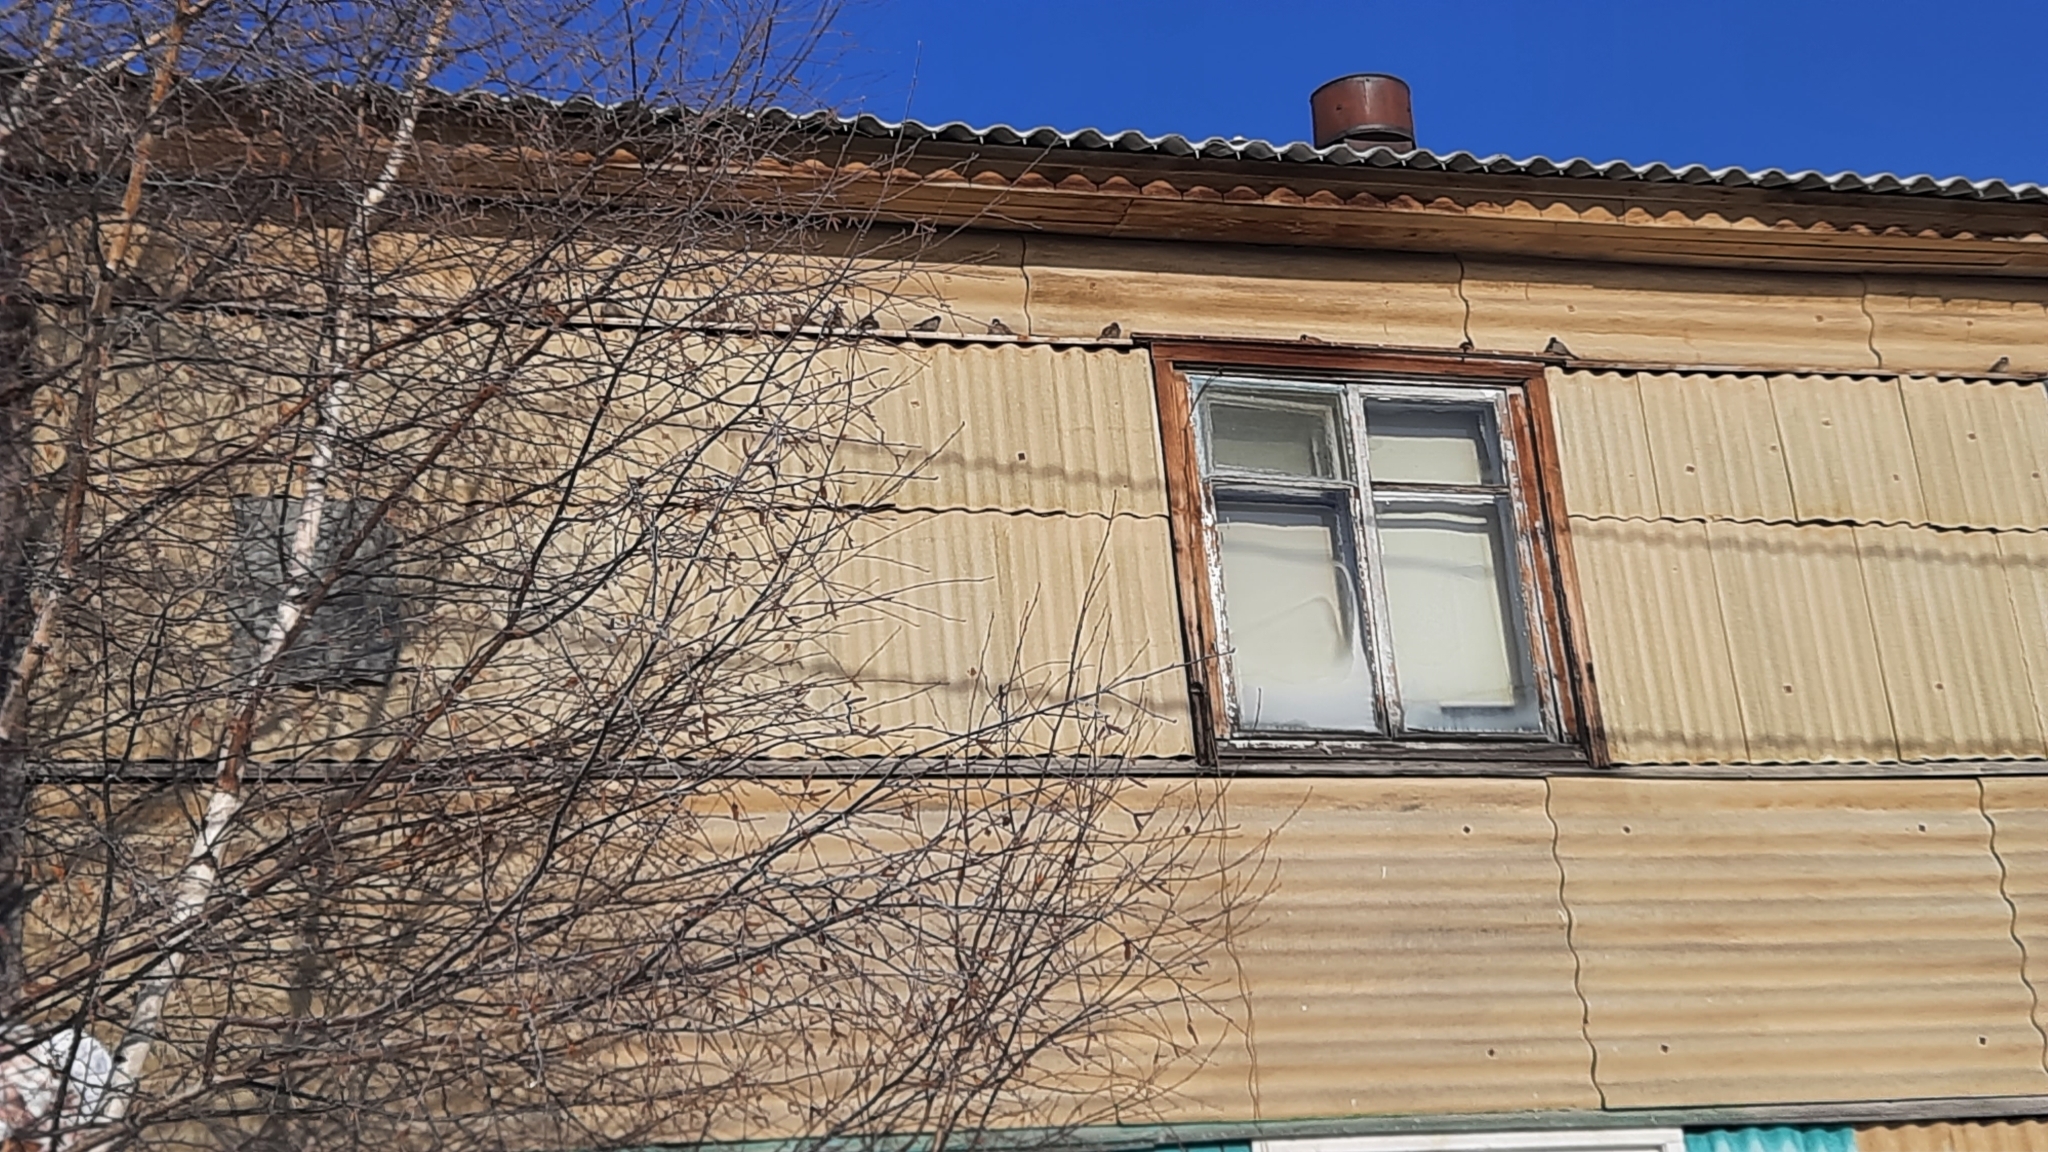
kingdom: Animalia
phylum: Chordata
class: Aves
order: Passeriformes
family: Passeridae
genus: Passer
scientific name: Passer domesticus
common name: House sparrow
